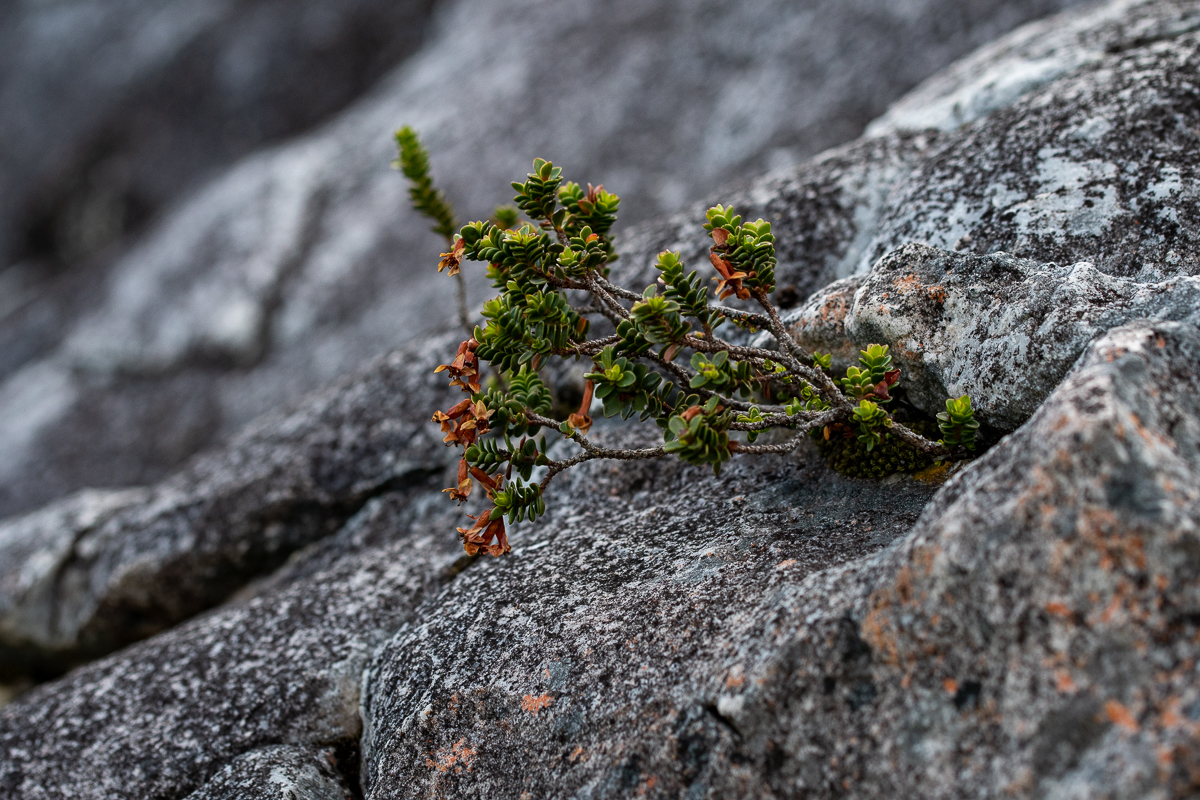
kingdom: Plantae
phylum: Tracheophyta
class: Magnoliopsida
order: Myrtales
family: Penaeaceae
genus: Sonderothamnus
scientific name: Sonderothamnus petraeus
